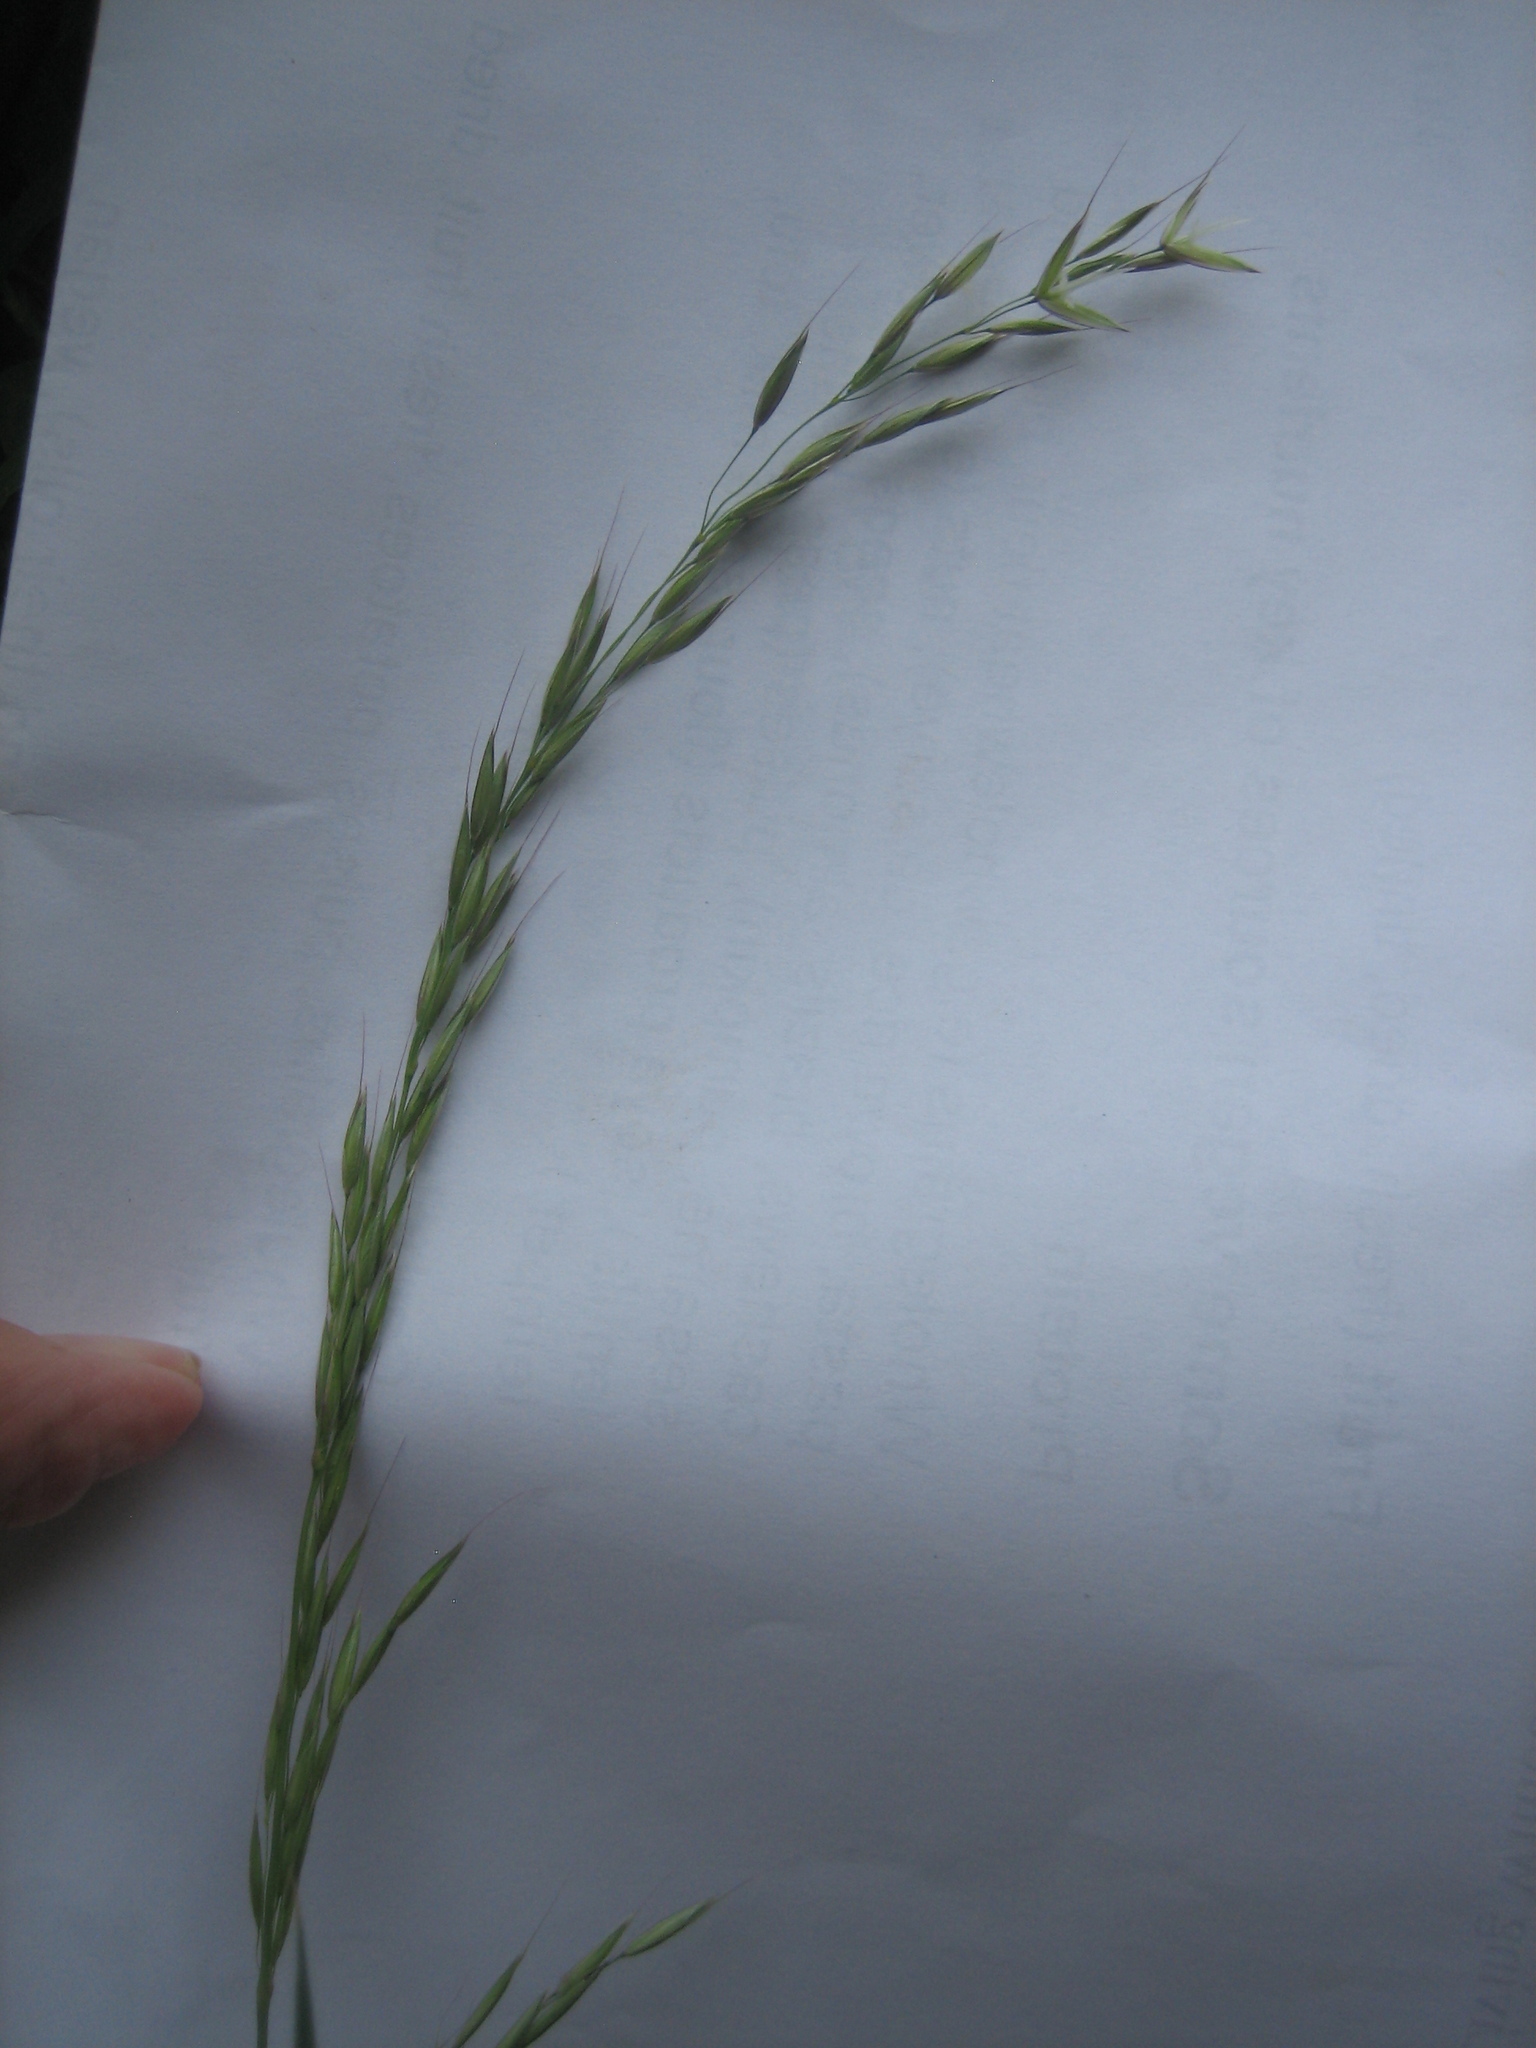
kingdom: Plantae
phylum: Tracheophyta
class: Liliopsida
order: Poales
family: Poaceae
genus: Arrhenatherum
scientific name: Arrhenatherum elatius
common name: Tall oatgrass
